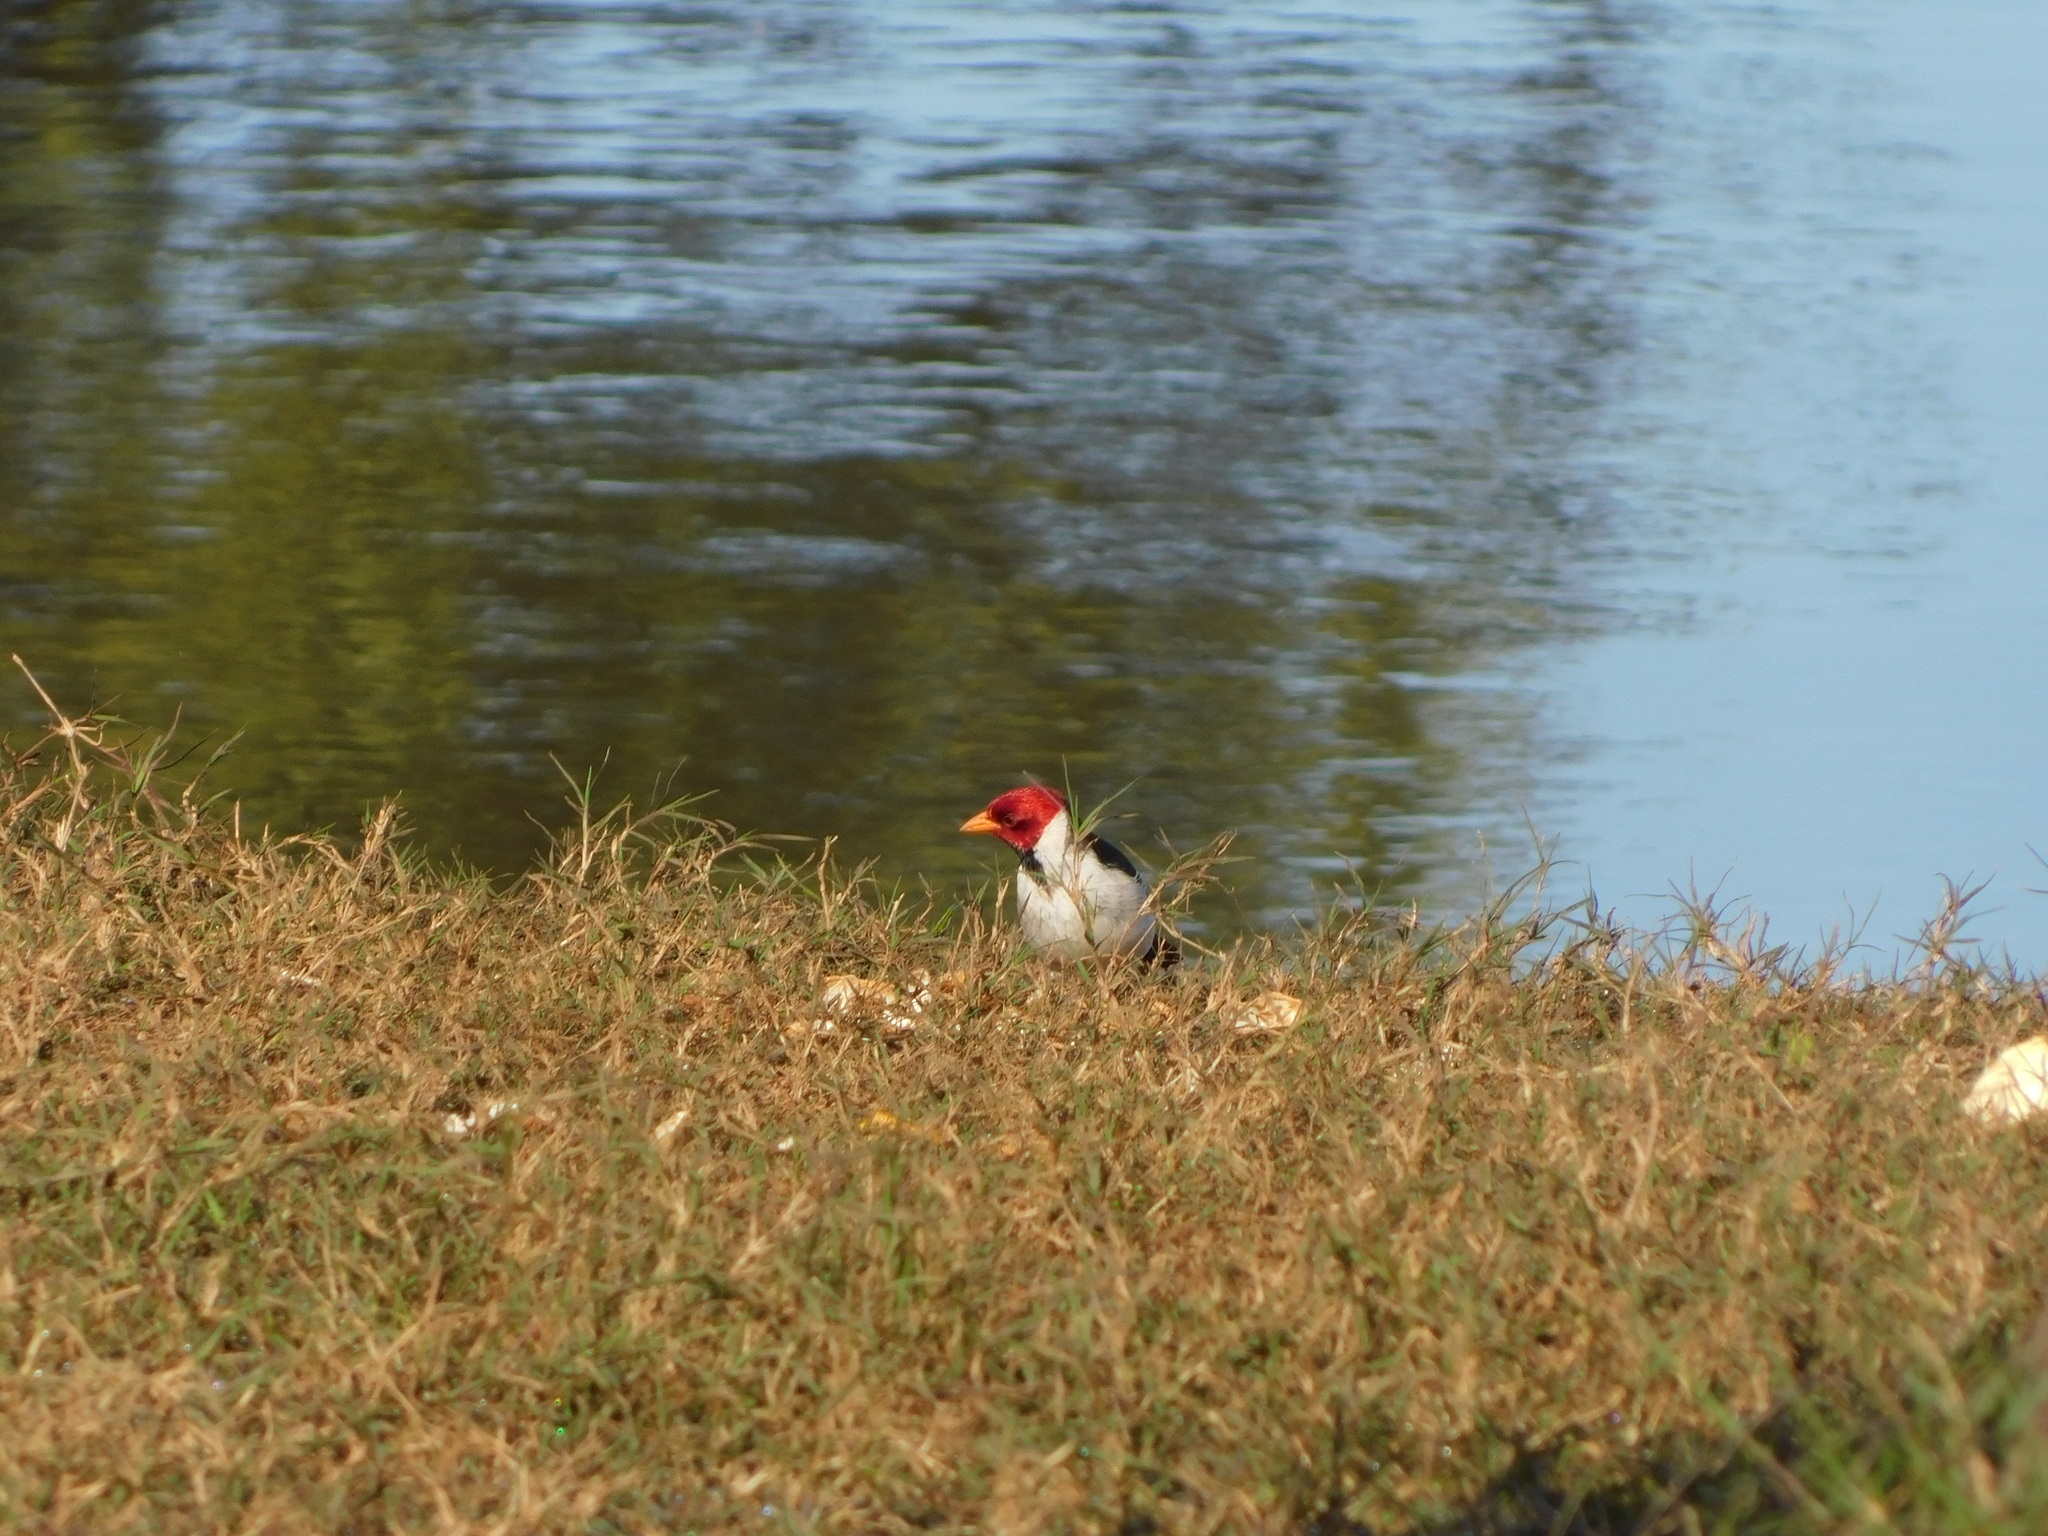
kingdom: Animalia
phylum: Chordata
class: Aves
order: Passeriformes
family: Thraupidae
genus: Paroaria
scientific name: Paroaria capitata
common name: Yellow-billed cardinal
